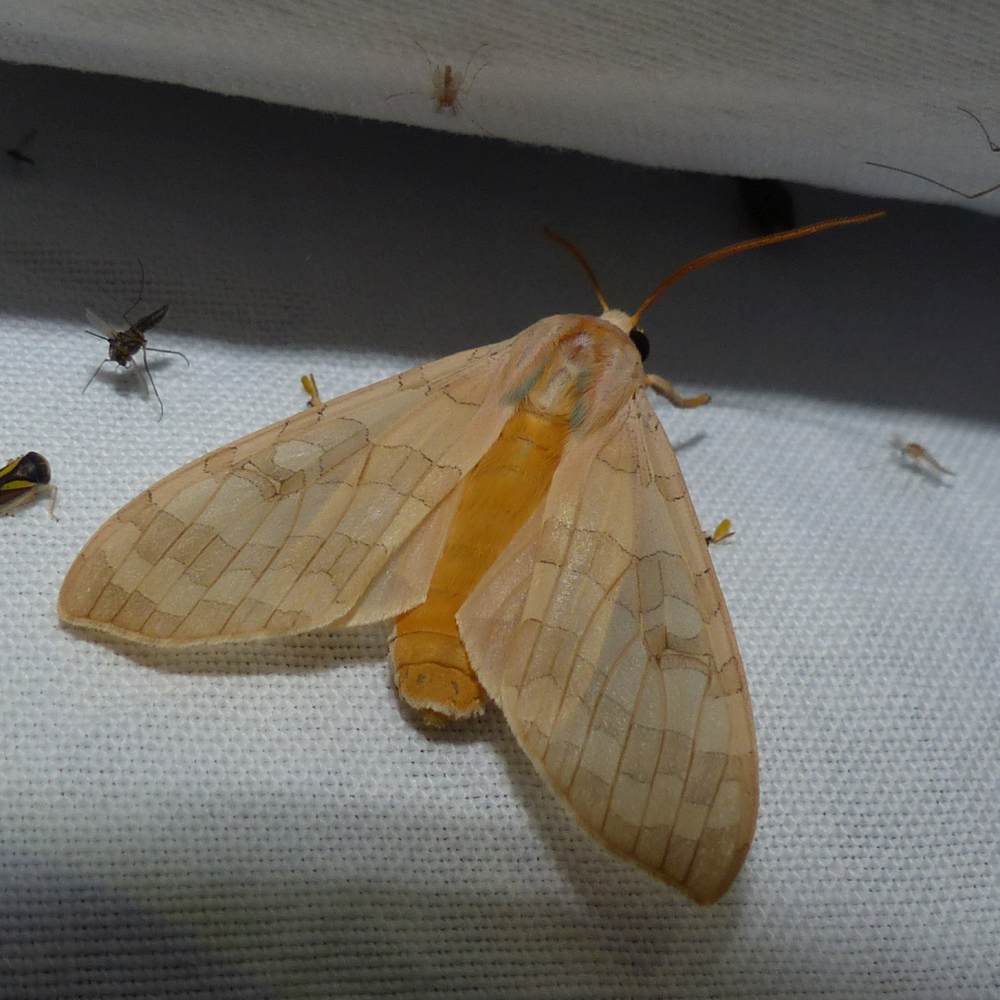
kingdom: Animalia
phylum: Arthropoda
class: Insecta
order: Lepidoptera
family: Erebidae
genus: Halysidota
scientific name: Halysidota tessellaris
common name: Banded tussock moth
